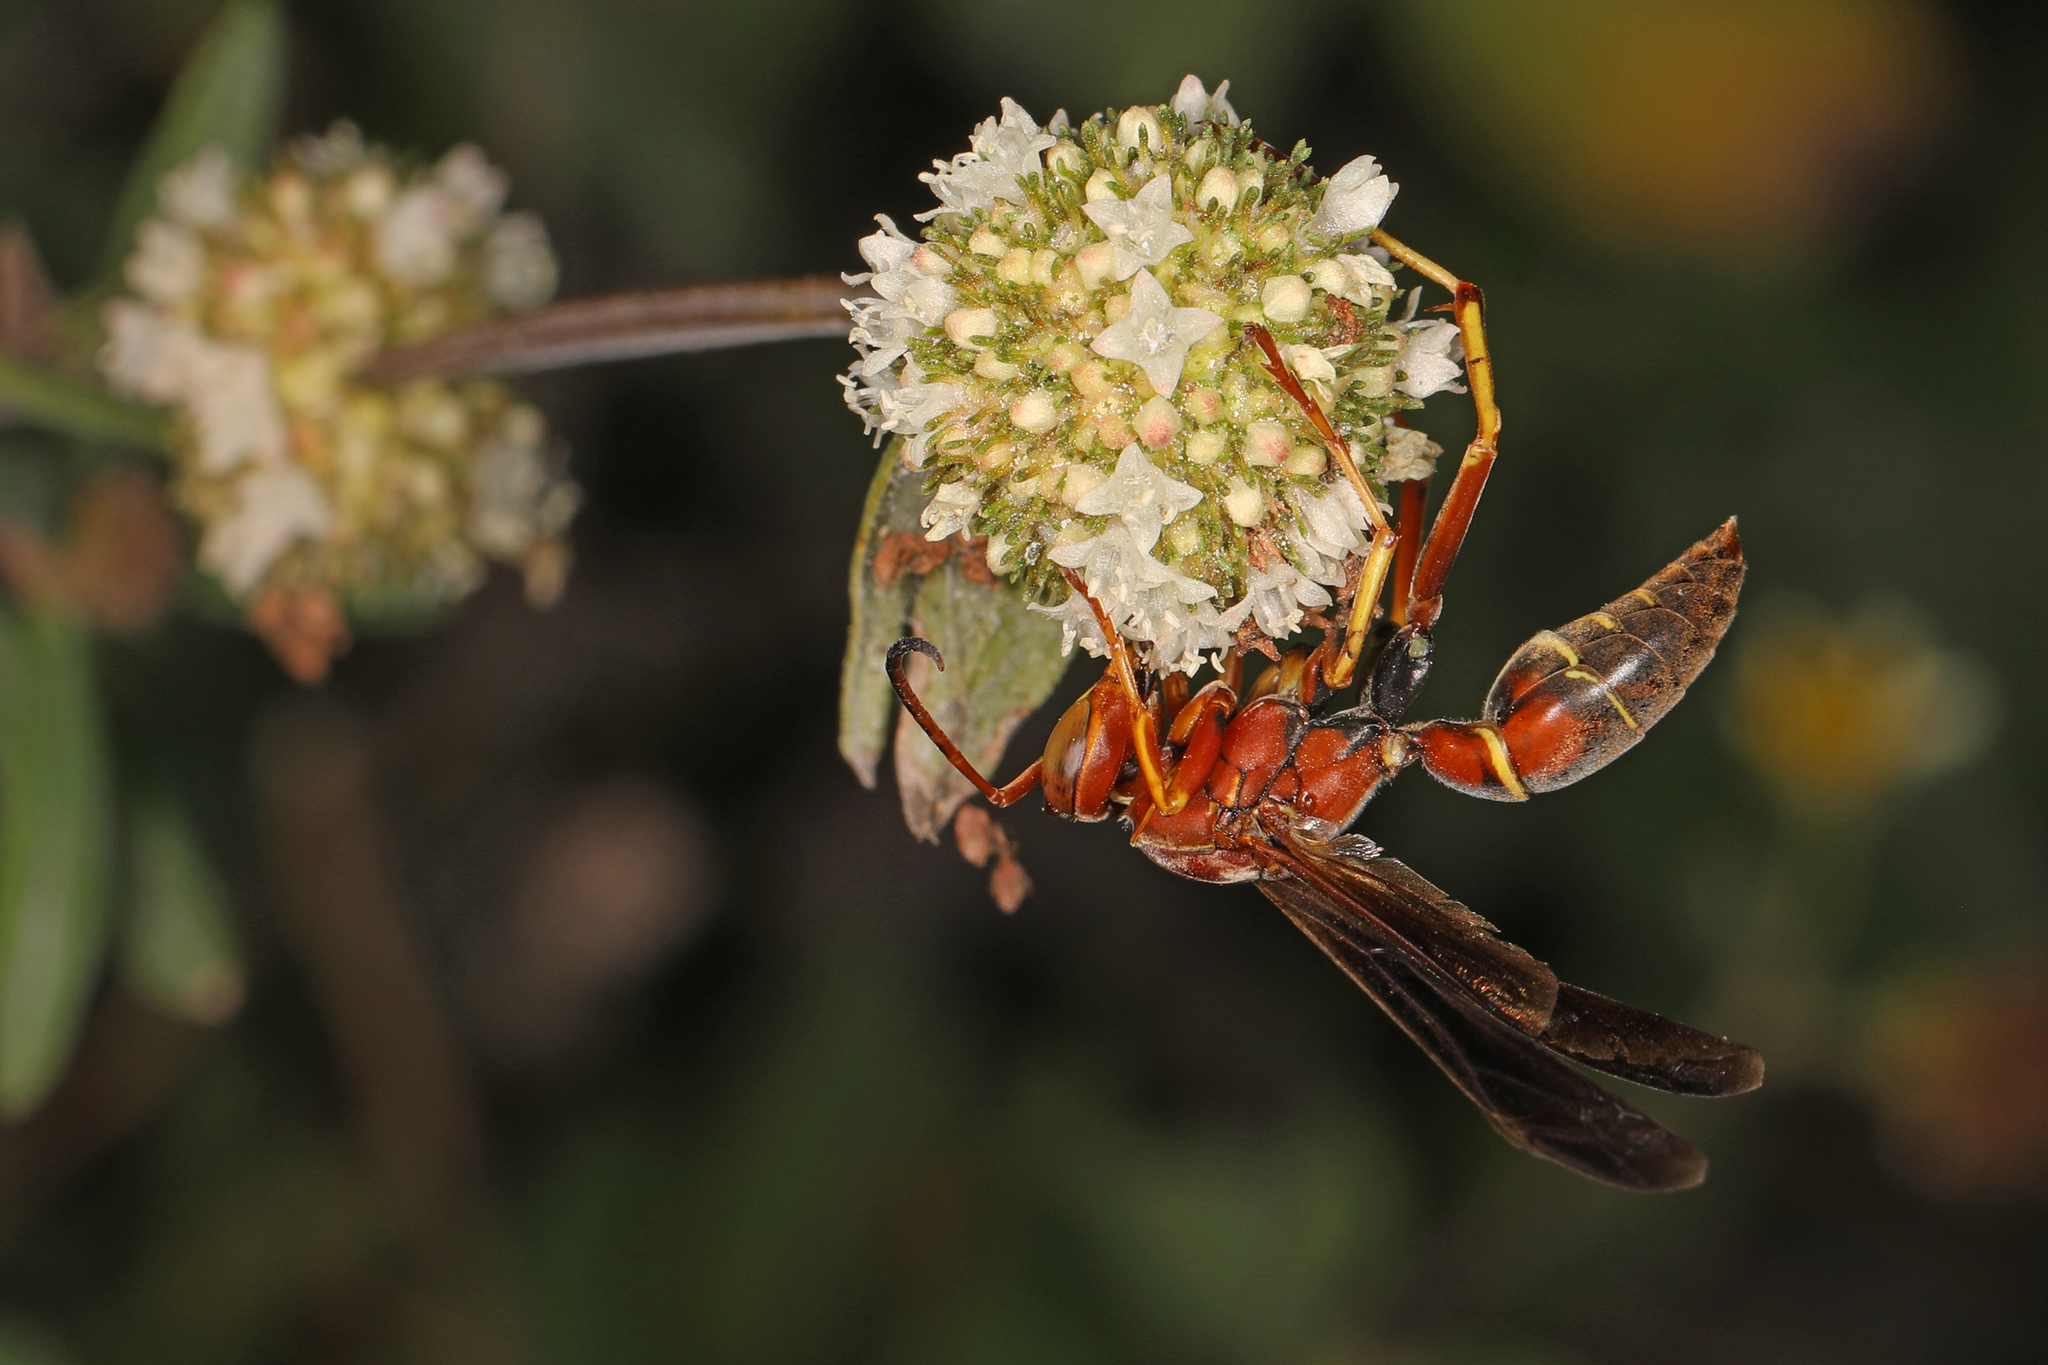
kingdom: Animalia
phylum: Arthropoda
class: Insecta
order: Hymenoptera
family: Eumenidae
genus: Polistes
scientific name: Polistes dorsalis
